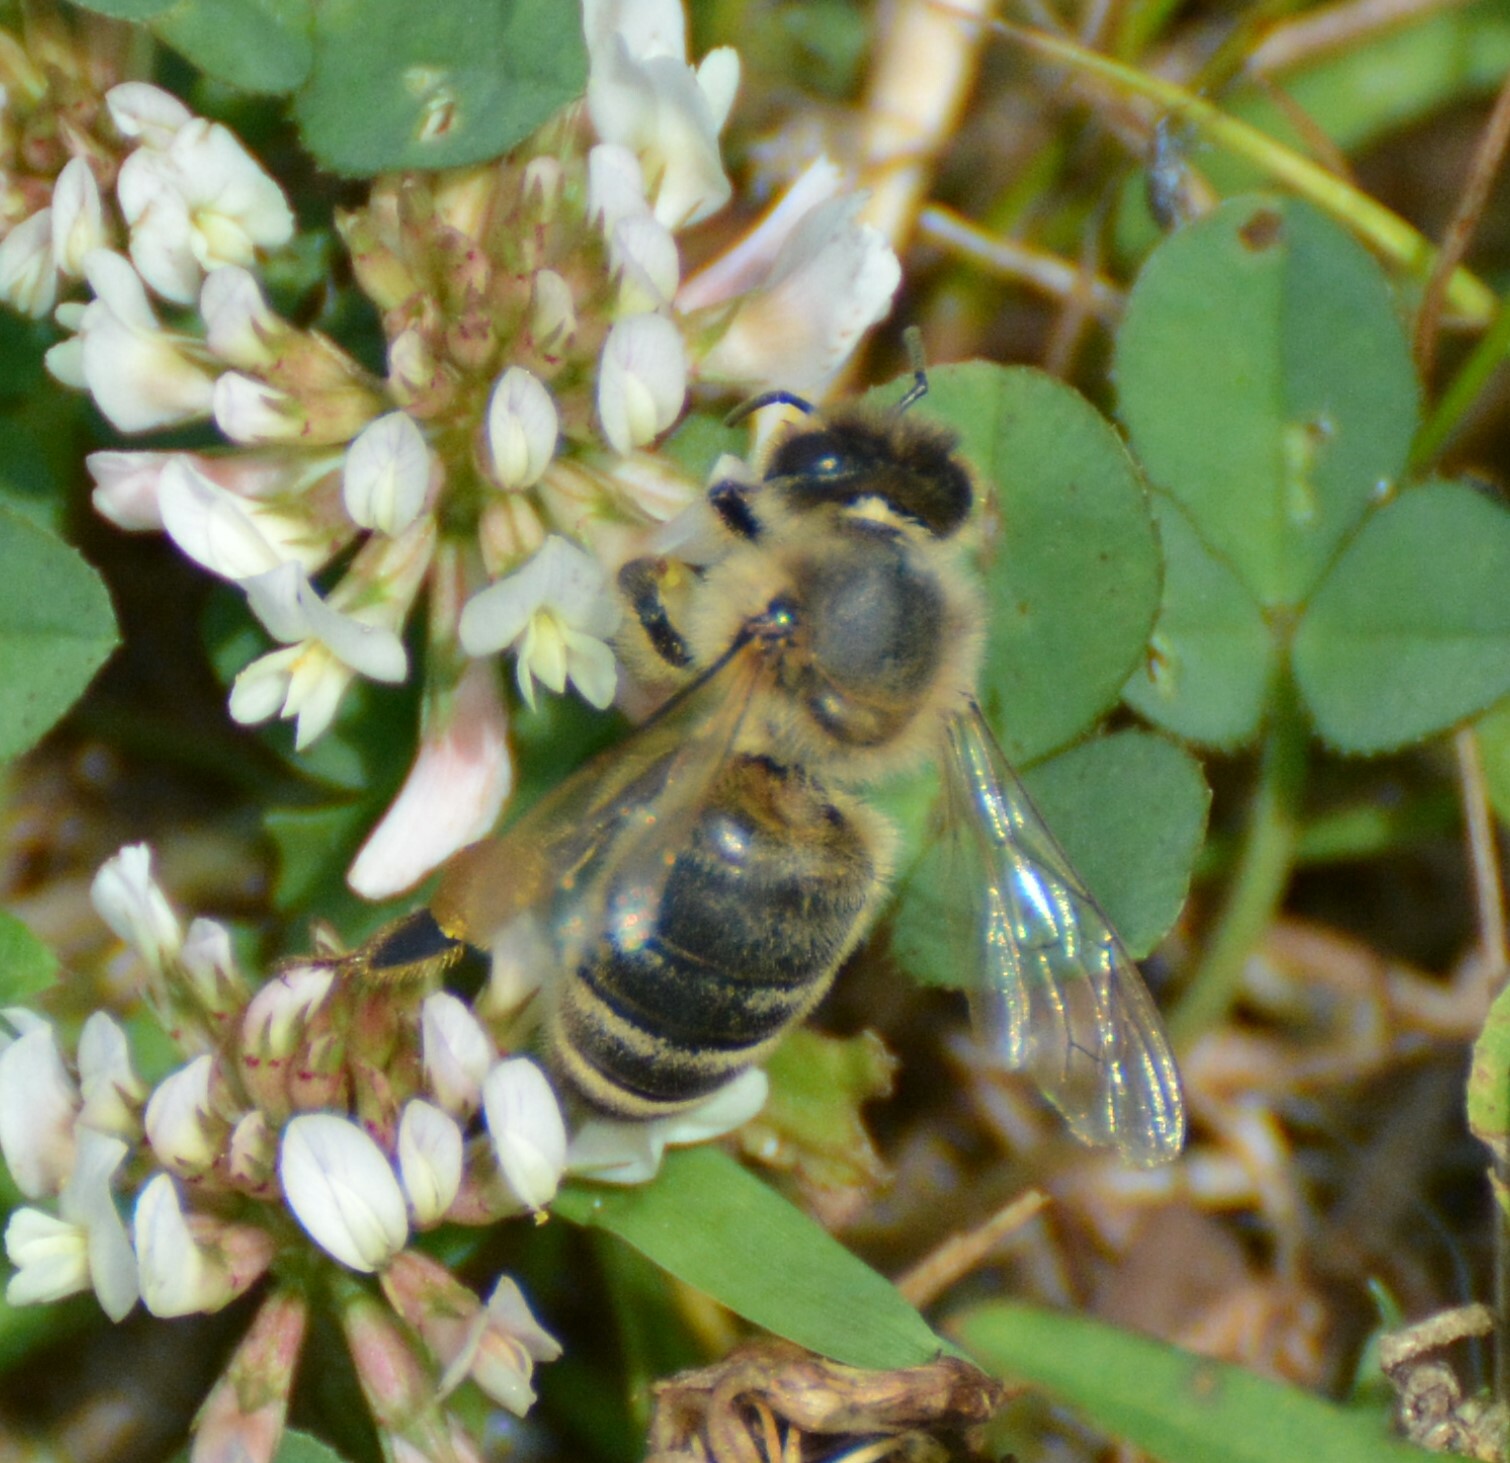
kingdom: Animalia
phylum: Arthropoda
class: Insecta
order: Hymenoptera
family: Apidae
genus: Apis
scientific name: Apis mellifera
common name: Honey bee
